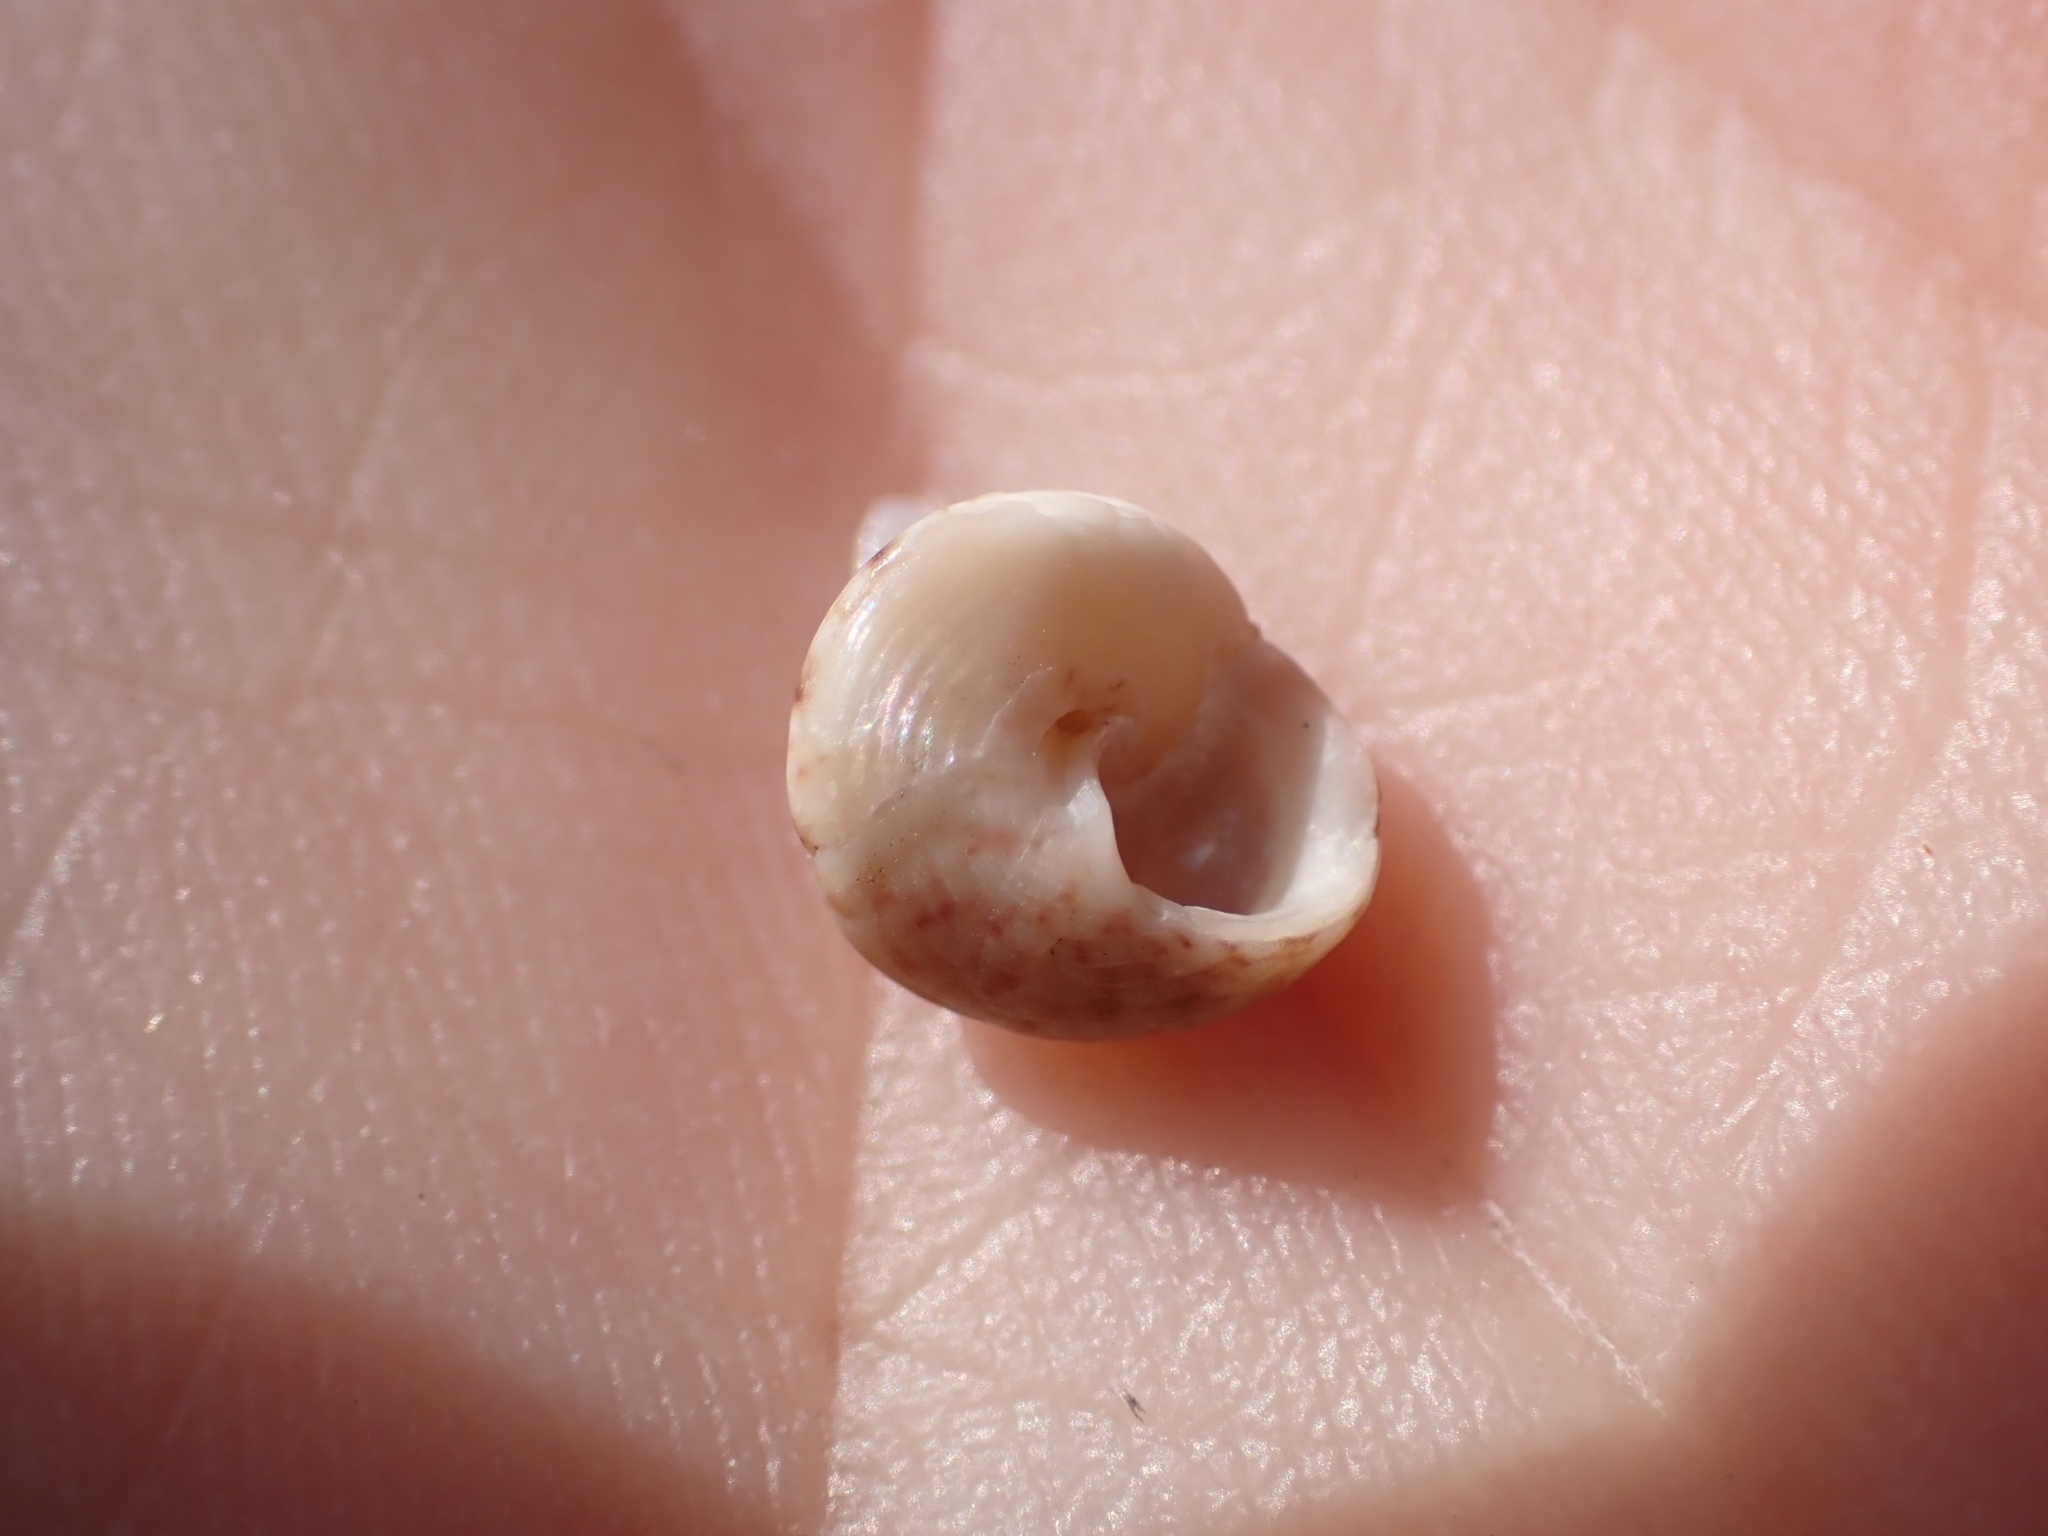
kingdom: Animalia
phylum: Mollusca
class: Gastropoda
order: Trochida
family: Trochidae
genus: Steromphala
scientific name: Steromphala adansonii
